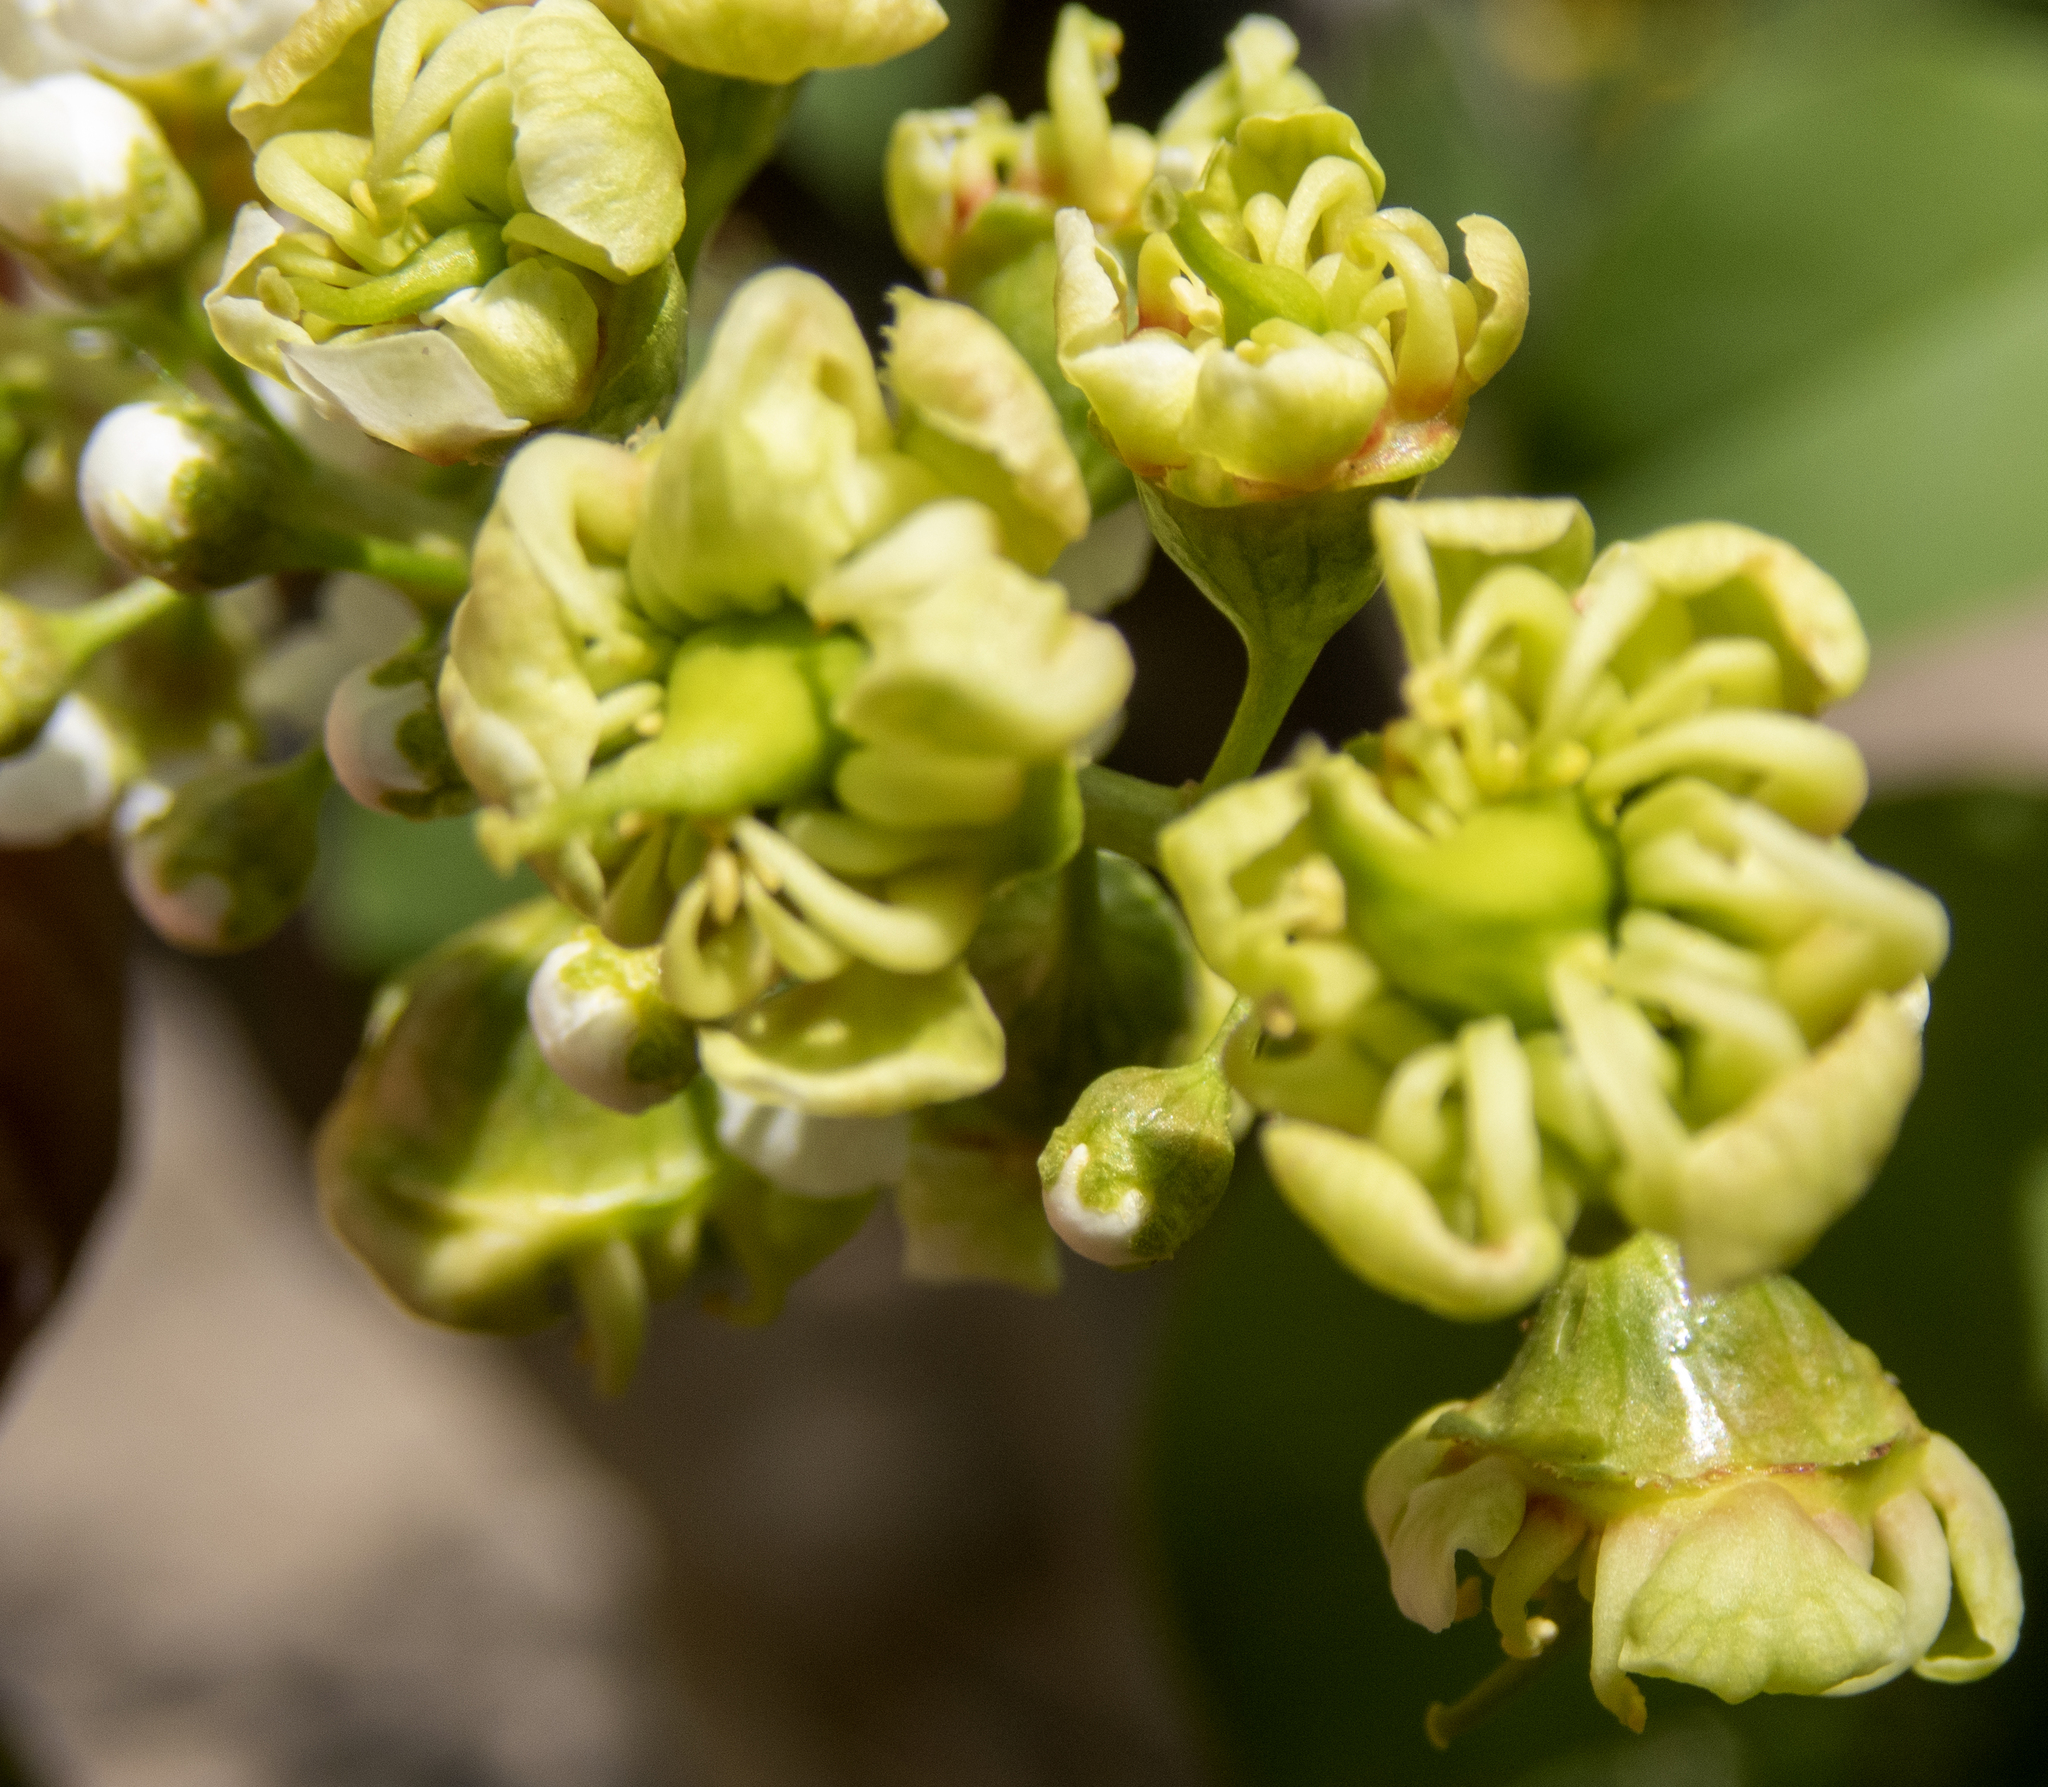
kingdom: Fungi
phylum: Ascomycota
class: Taphrinomycetes
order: Taphrinales
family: Taphrinaceae
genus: Taphrina
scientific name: Taphrina confusa
